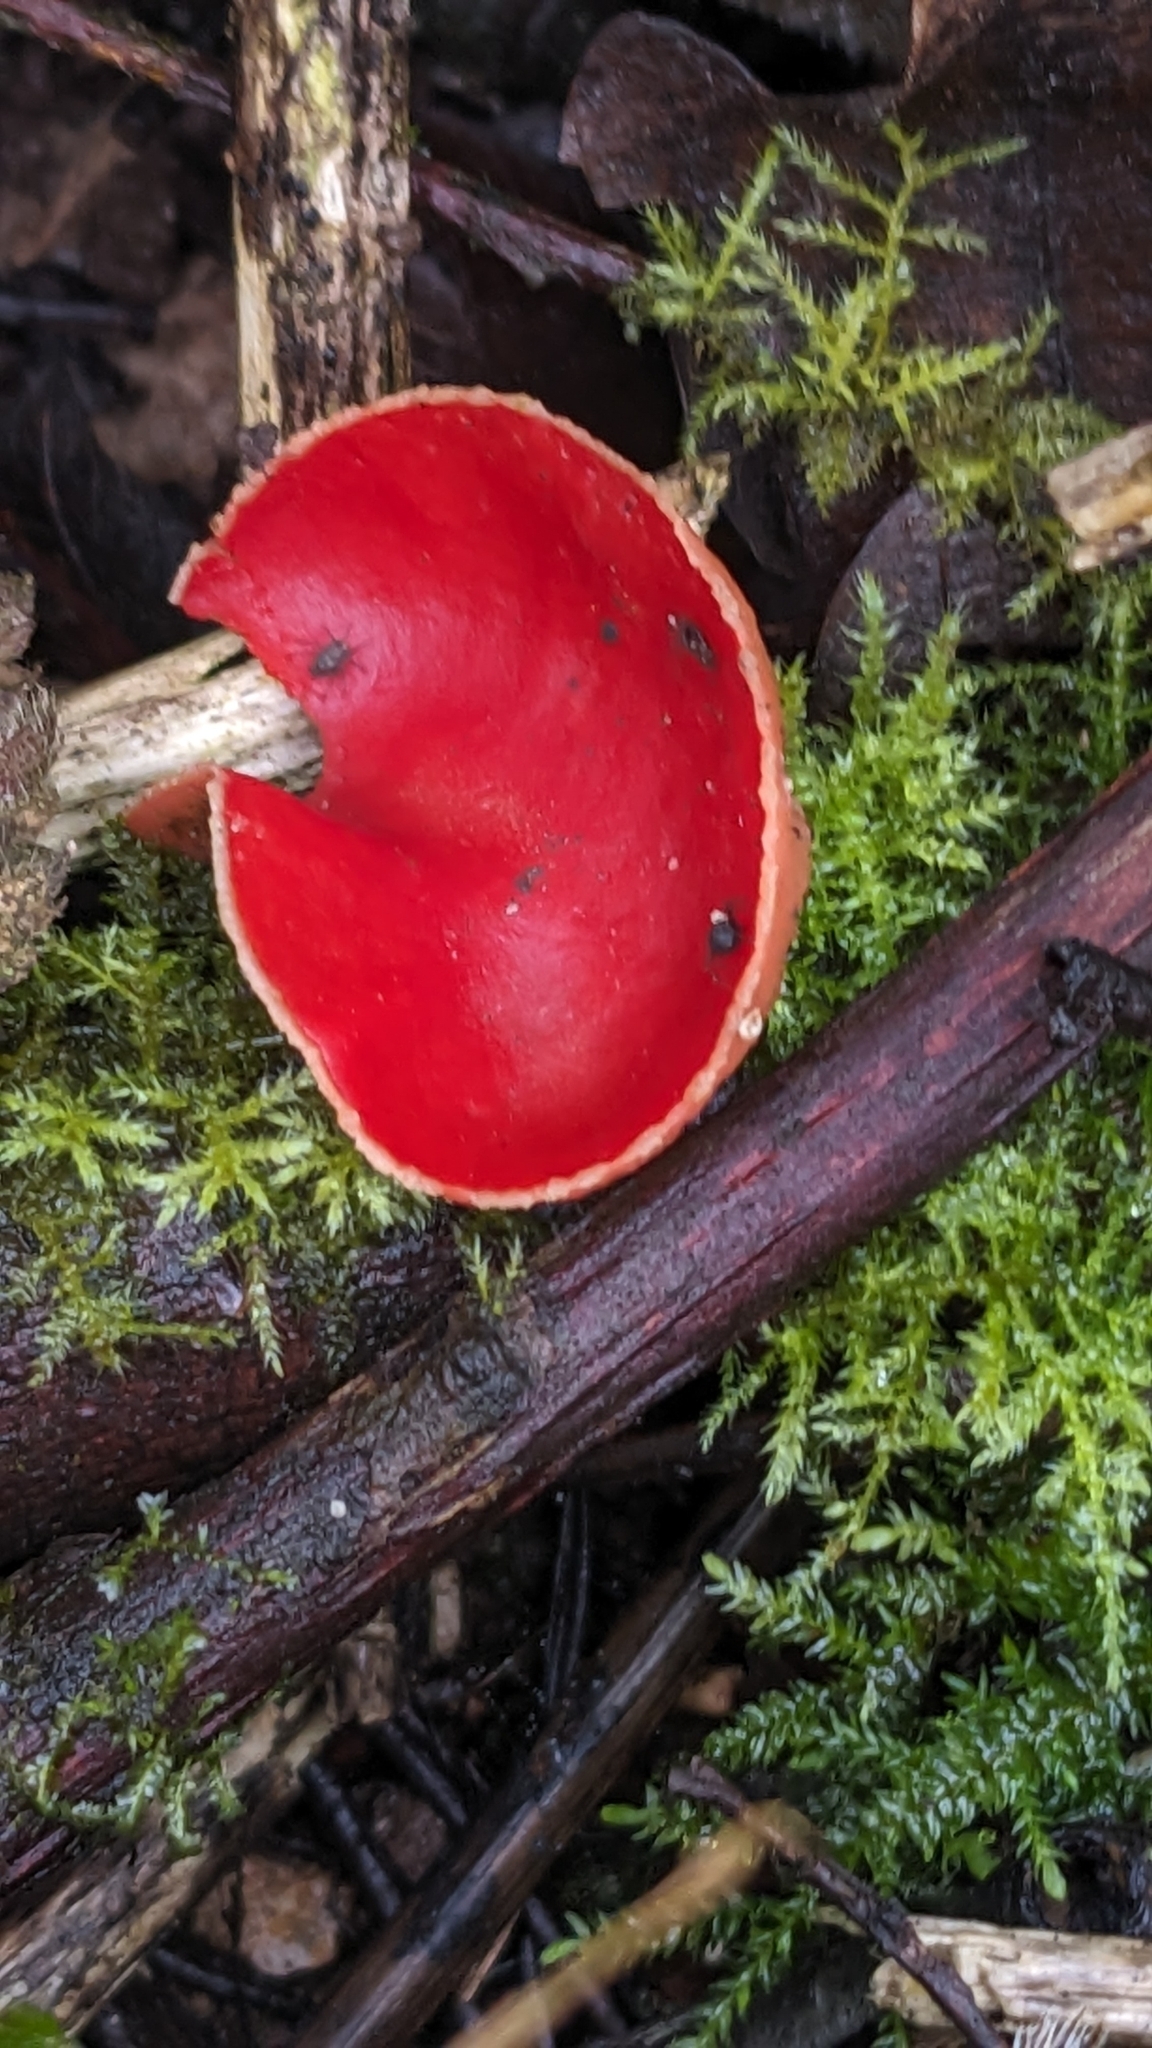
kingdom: Fungi
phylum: Ascomycota
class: Pezizomycetes
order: Pezizales
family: Sarcoscyphaceae
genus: Sarcoscypha
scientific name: Sarcoscypha
